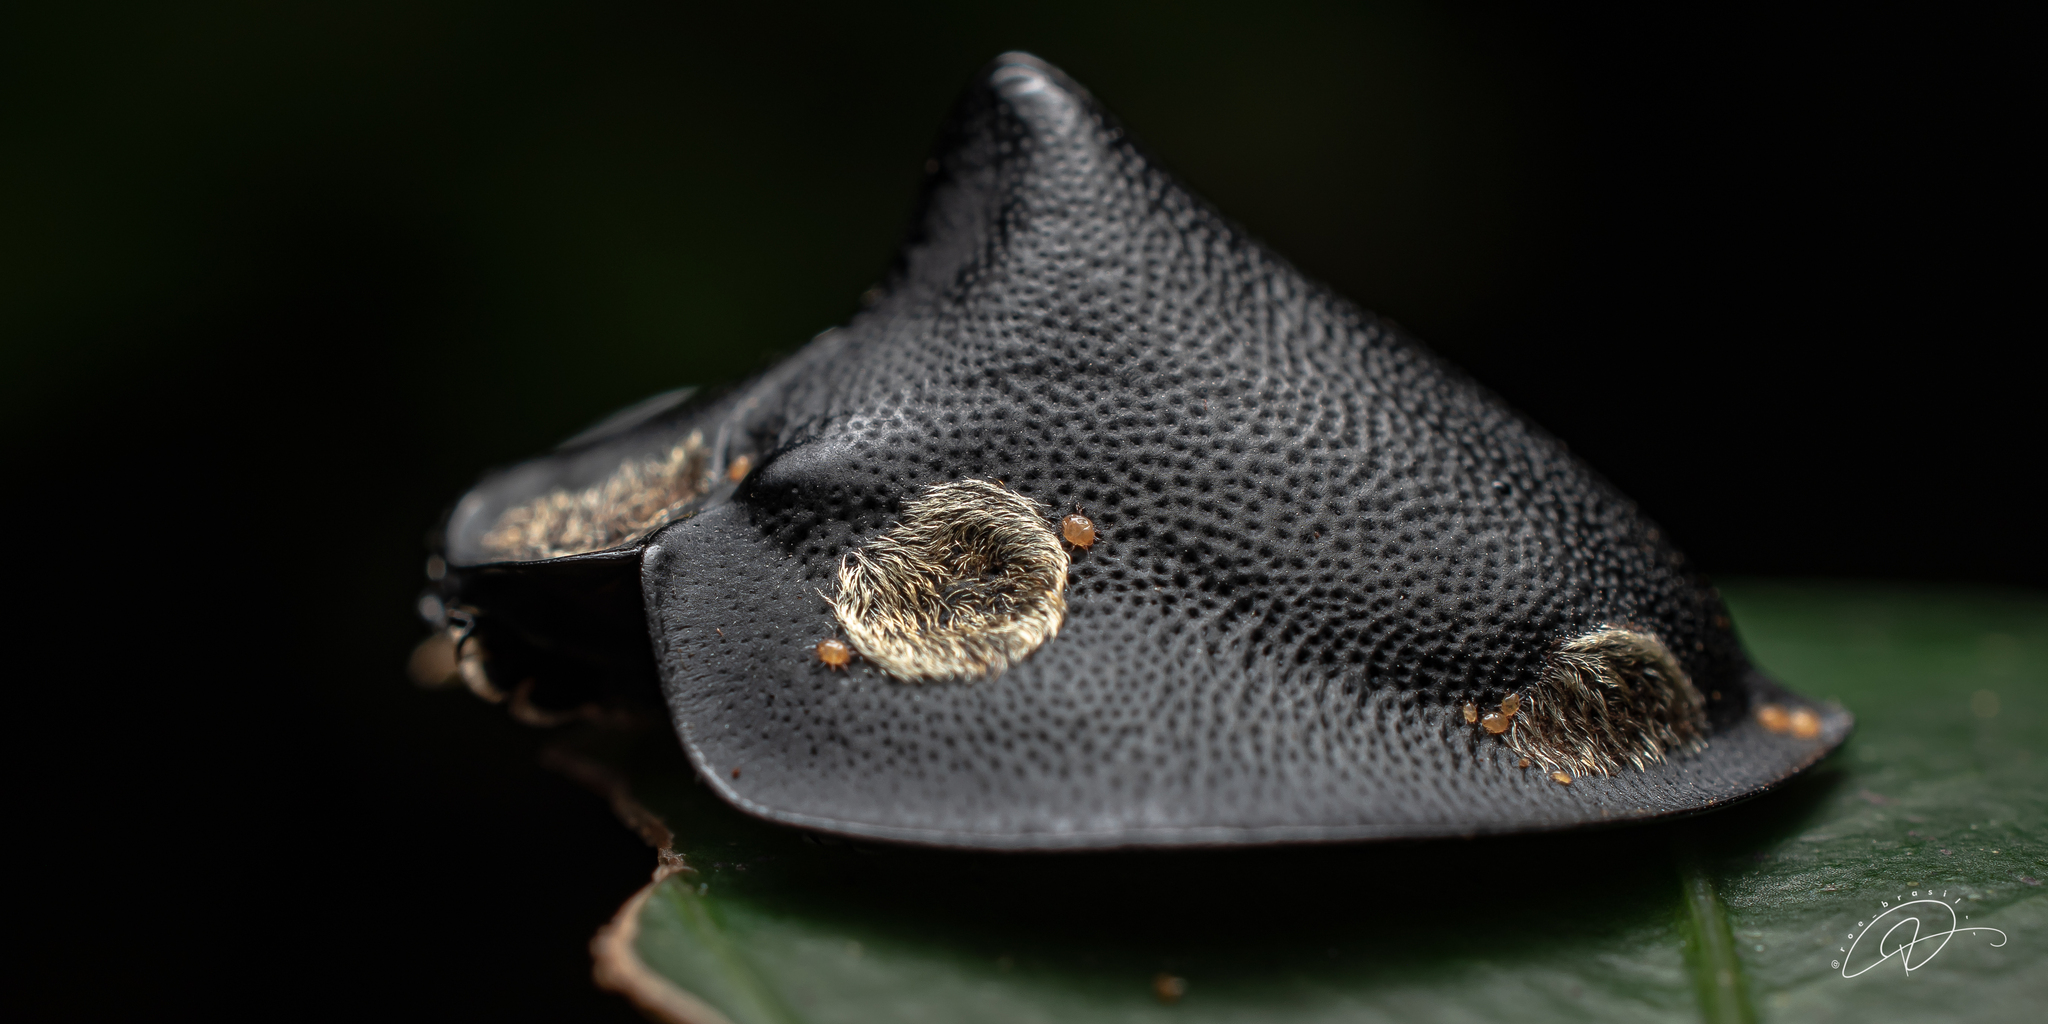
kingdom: Animalia
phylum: Arthropoda
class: Insecta
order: Coleoptera
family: Chrysomelidae
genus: Mesomphalia
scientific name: Mesomphalia turrita
